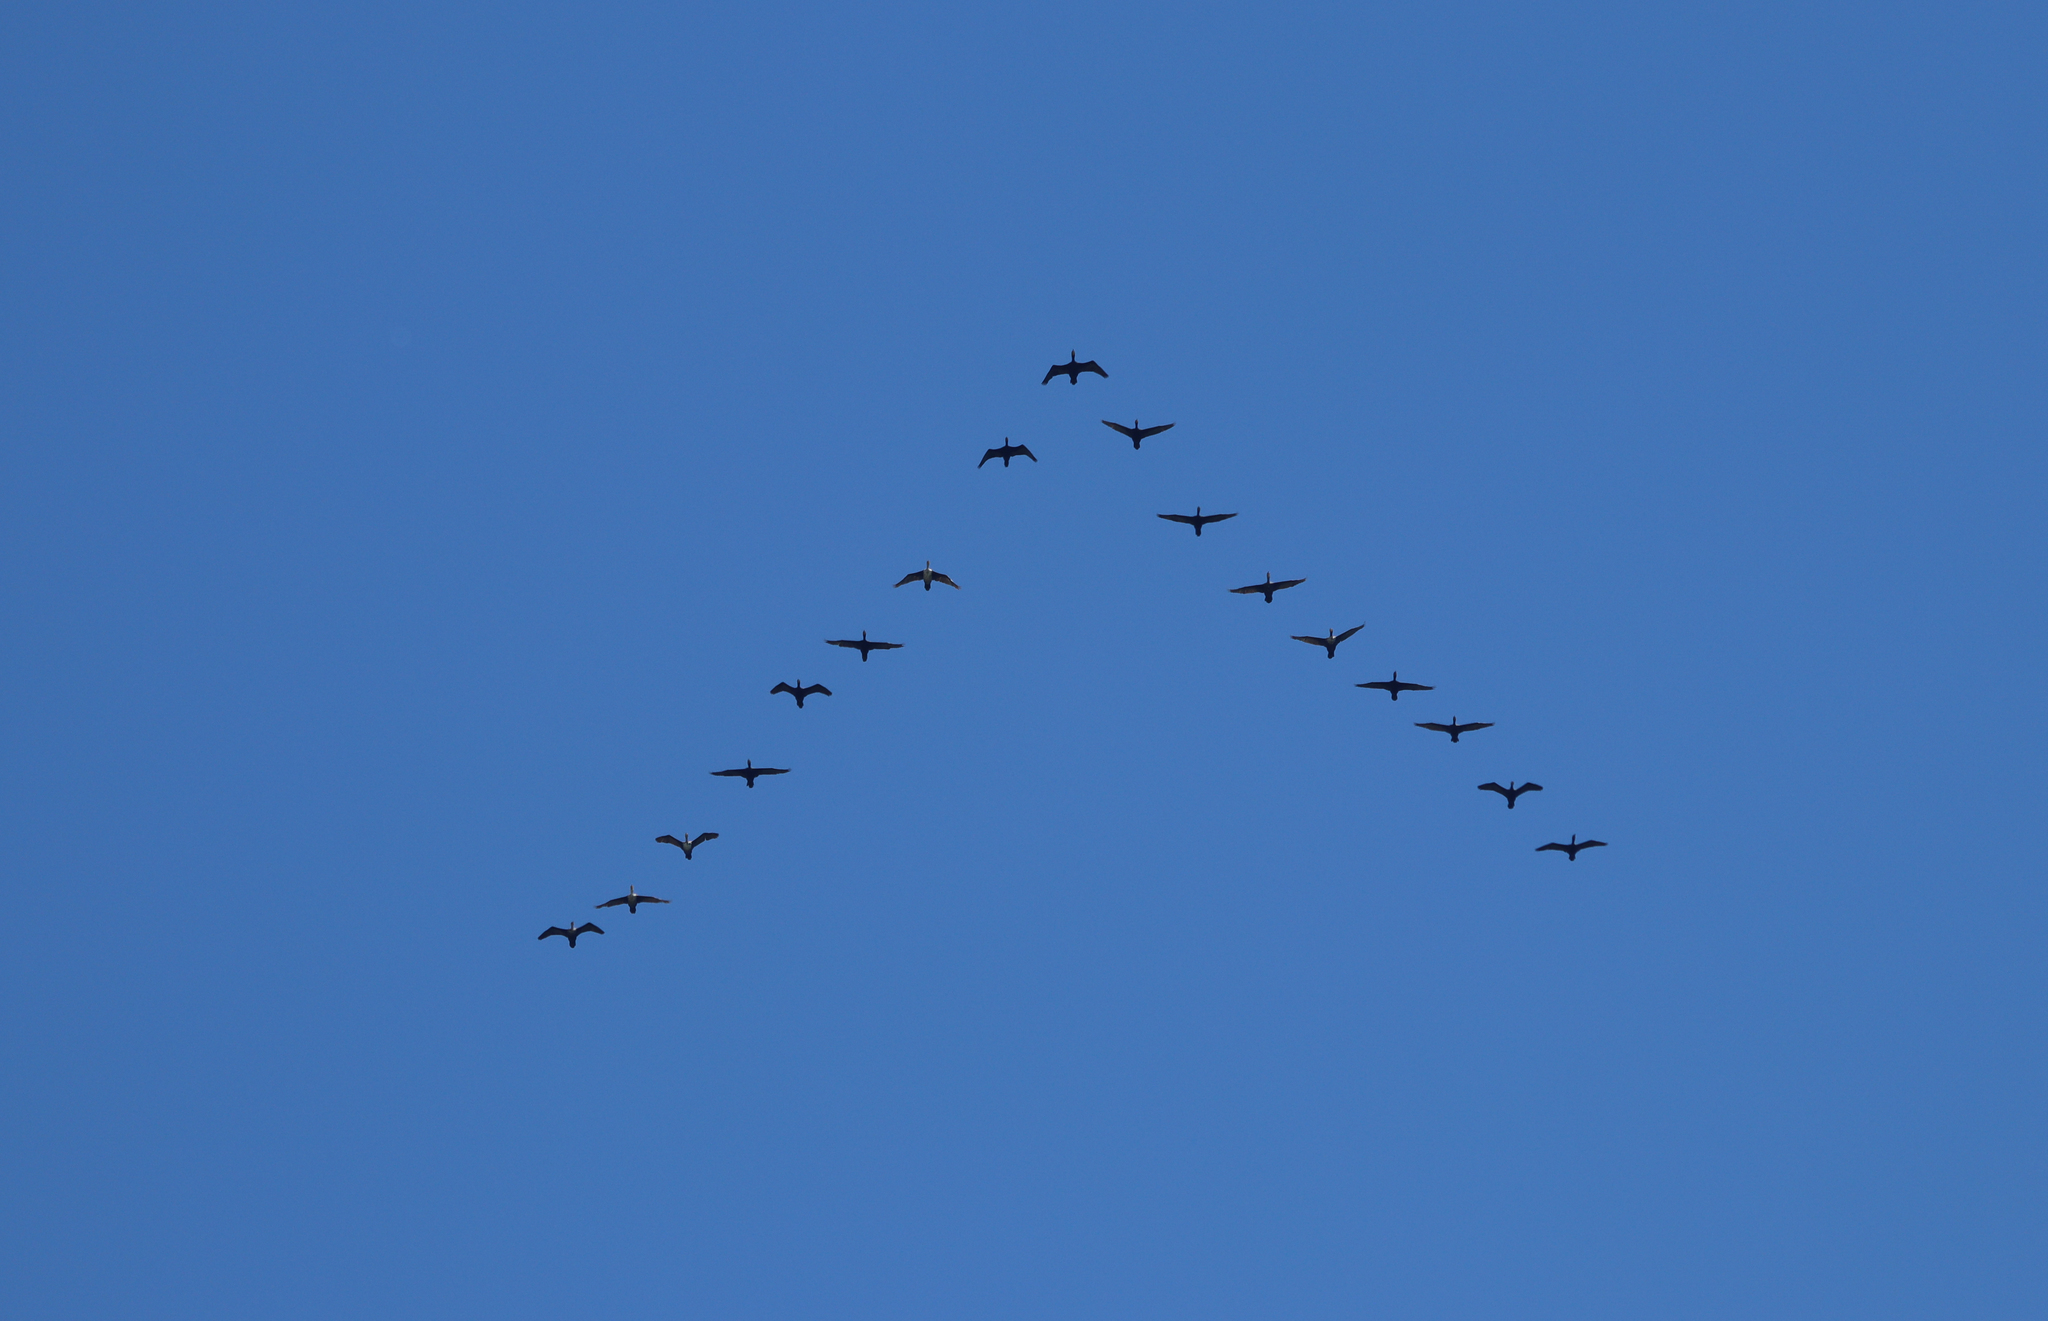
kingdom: Animalia
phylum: Chordata
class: Aves
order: Suliformes
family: Phalacrocoracidae
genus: Phalacrocorax
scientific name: Phalacrocorax auritus
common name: Double-crested cormorant
